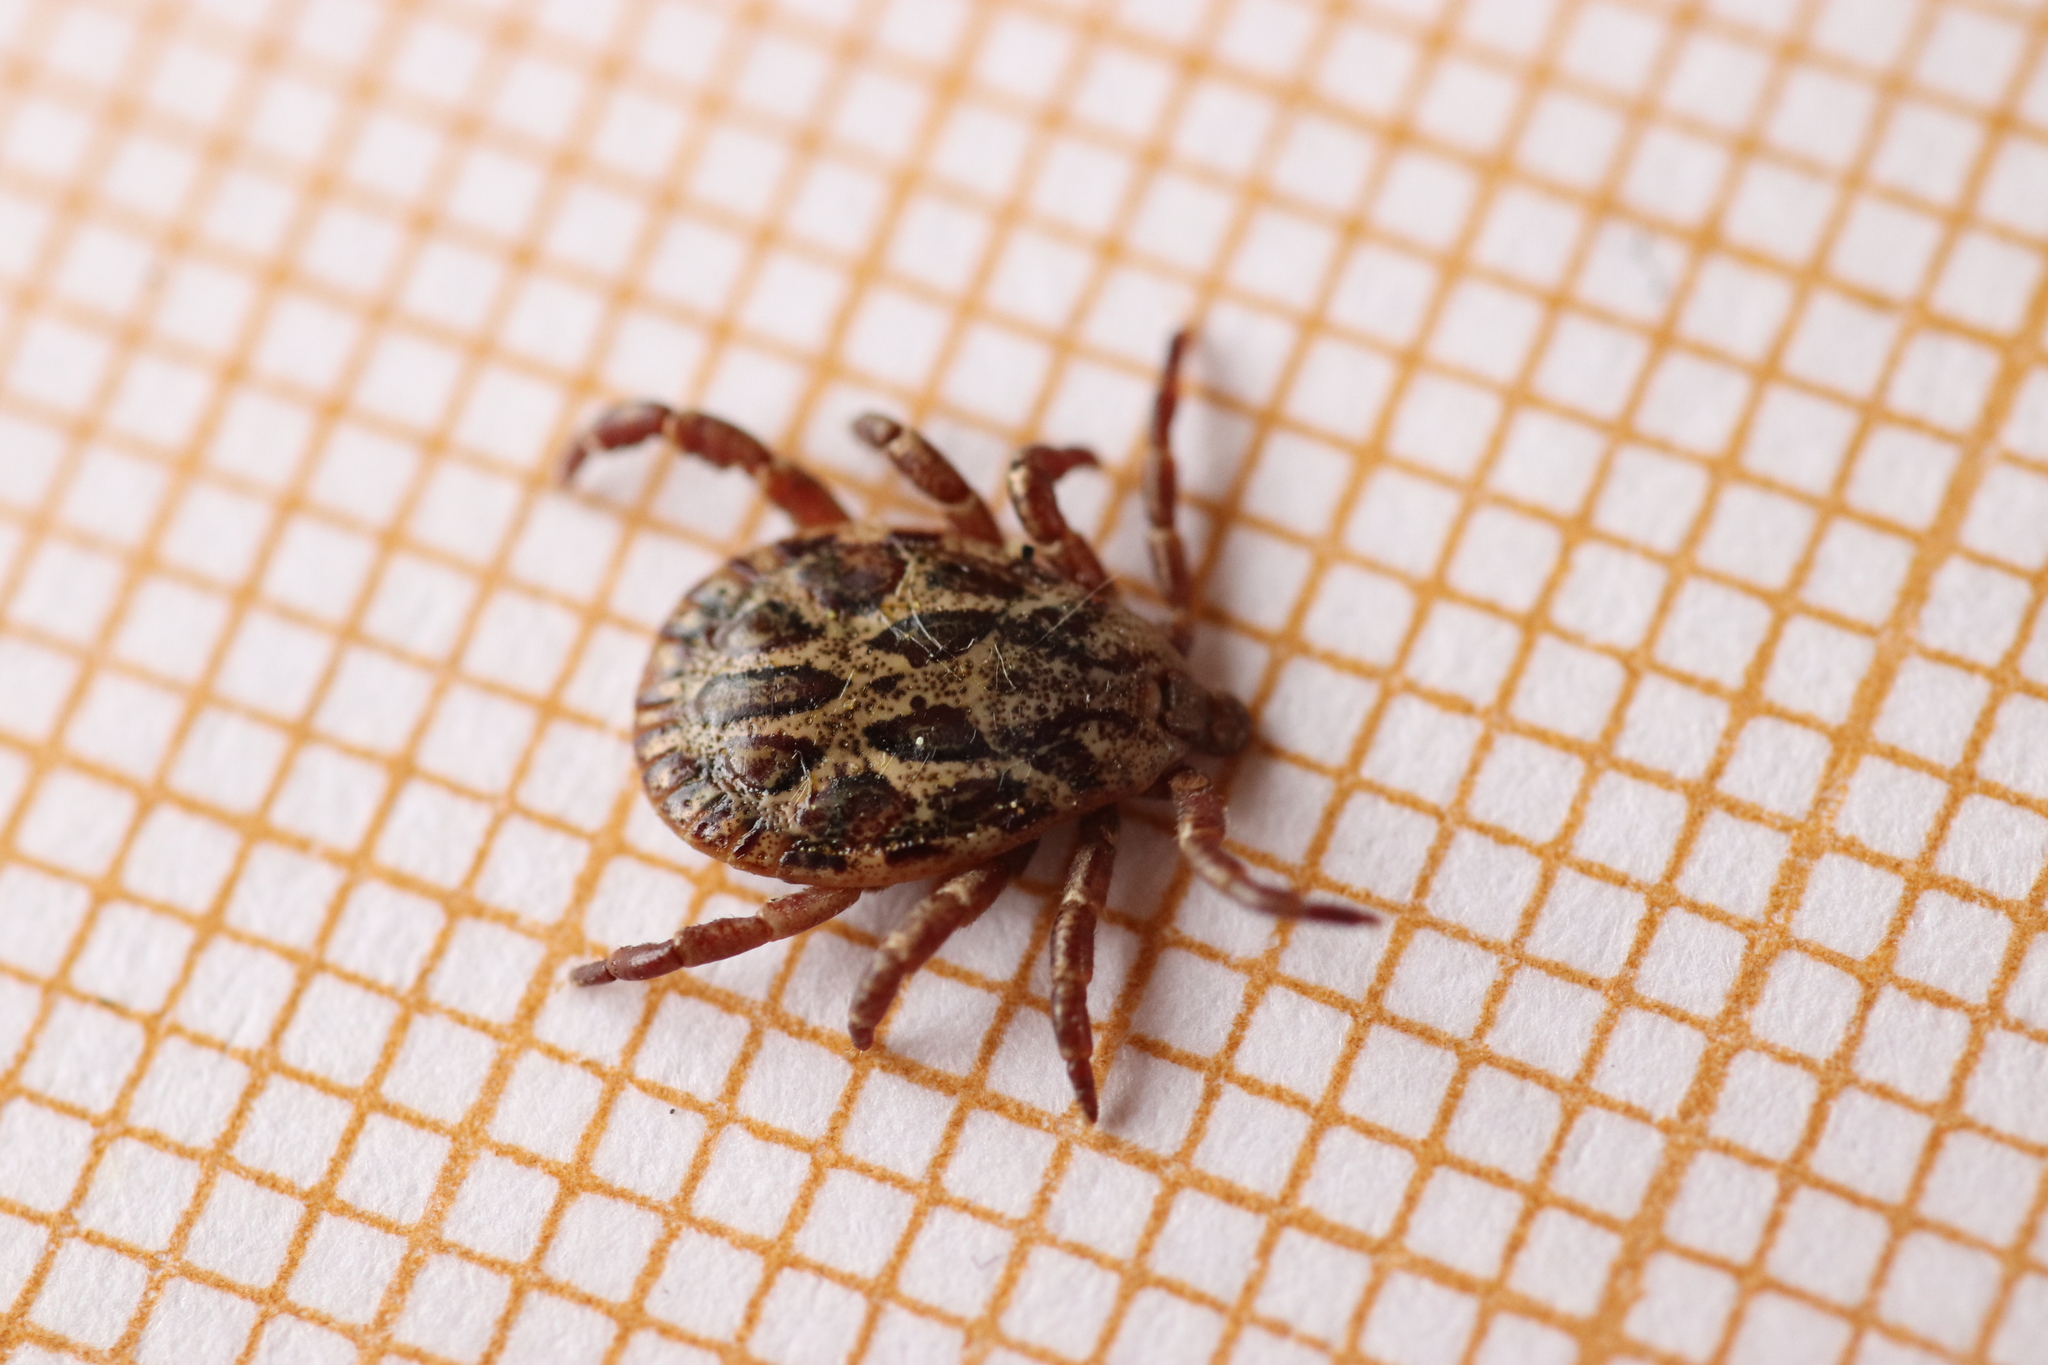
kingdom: Animalia
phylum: Arthropoda
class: Arachnida
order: Ixodida
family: Ixodidae
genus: Dermacentor
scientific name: Dermacentor marginatus
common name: Ornate sheep tick
